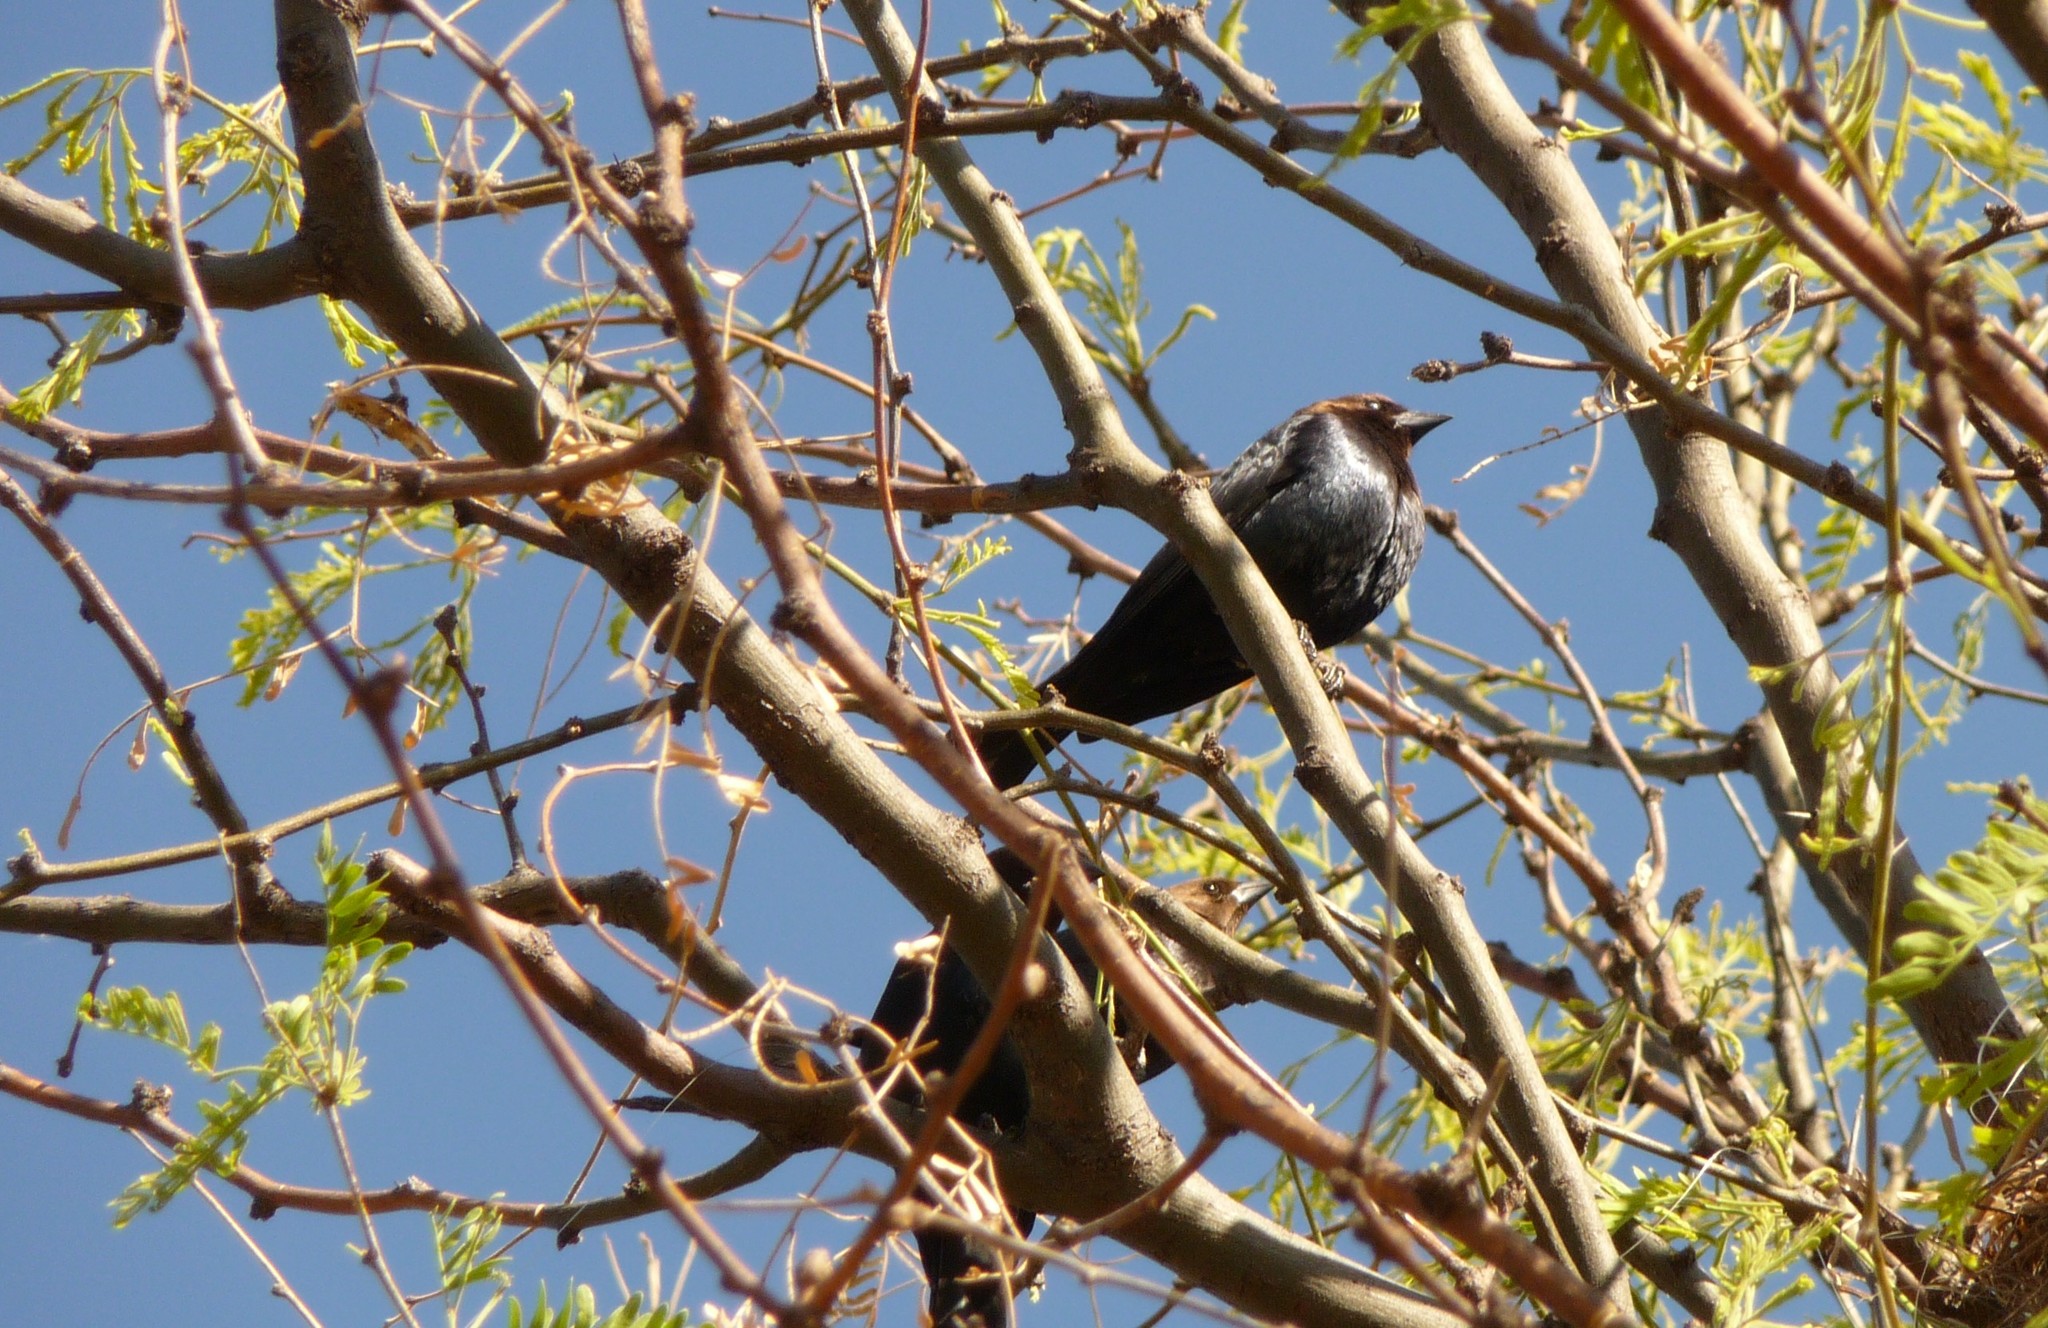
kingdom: Animalia
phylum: Chordata
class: Aves
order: Passeriformes
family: Icteridae
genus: Molothrus
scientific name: Molothrus ater
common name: Brown-headed cowbird
